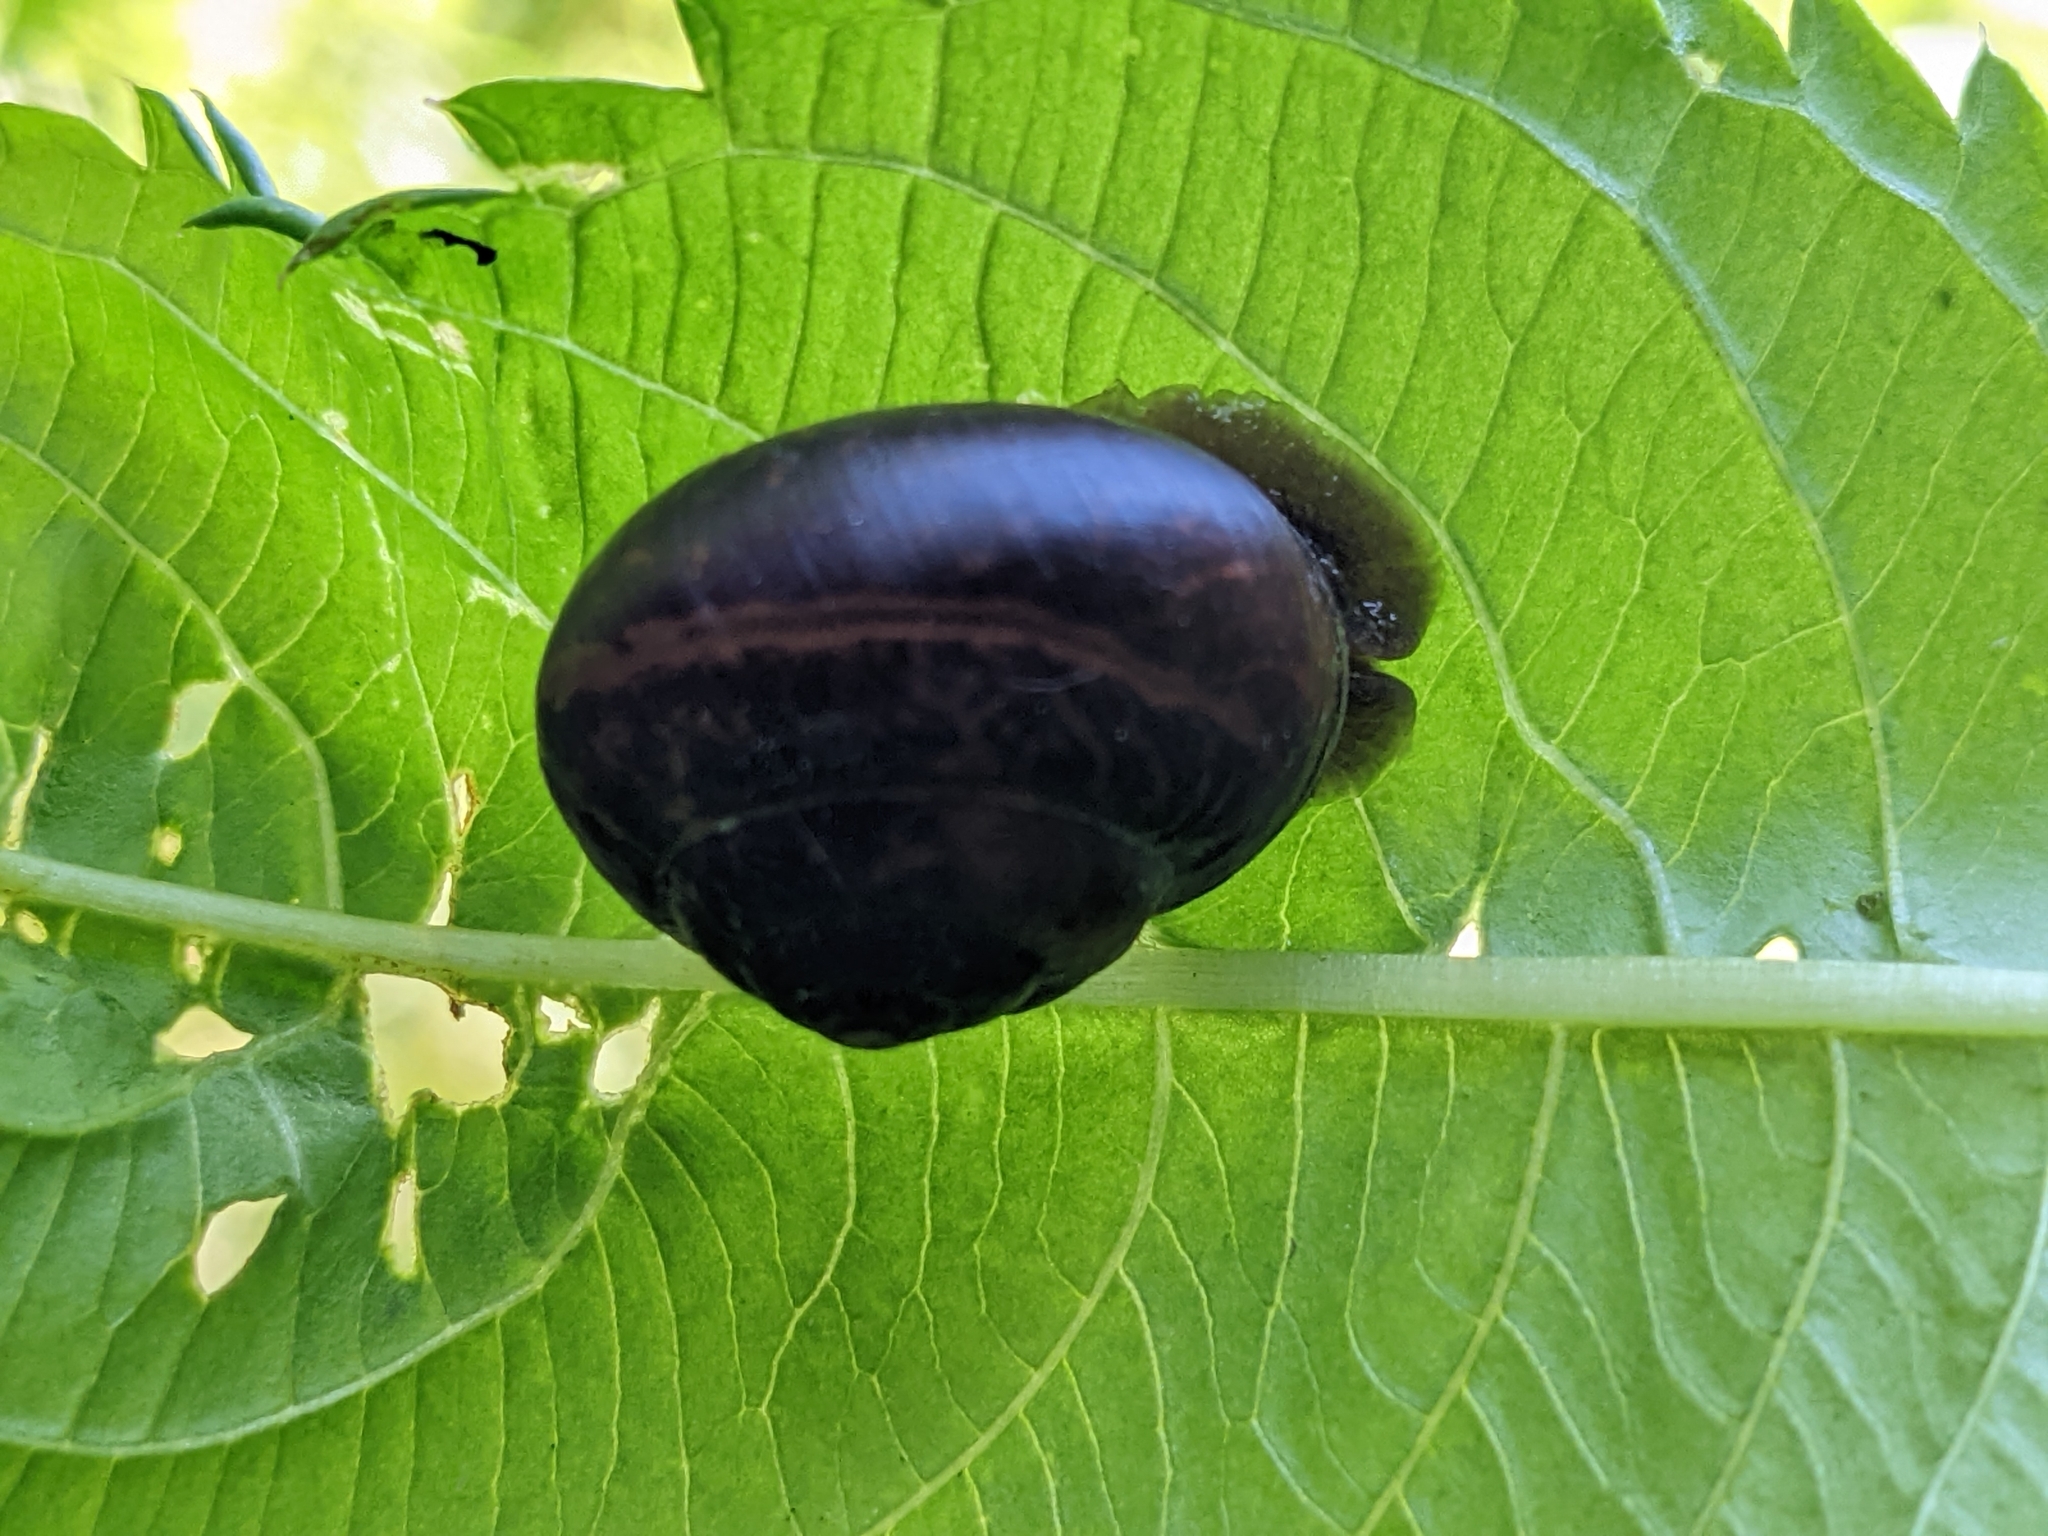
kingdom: Animalia
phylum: Mollusca
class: Gastropoda
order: Stylommatophora
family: Camaenidae
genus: Fruticicola
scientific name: Fruticicola fruticum
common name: Bush snail
